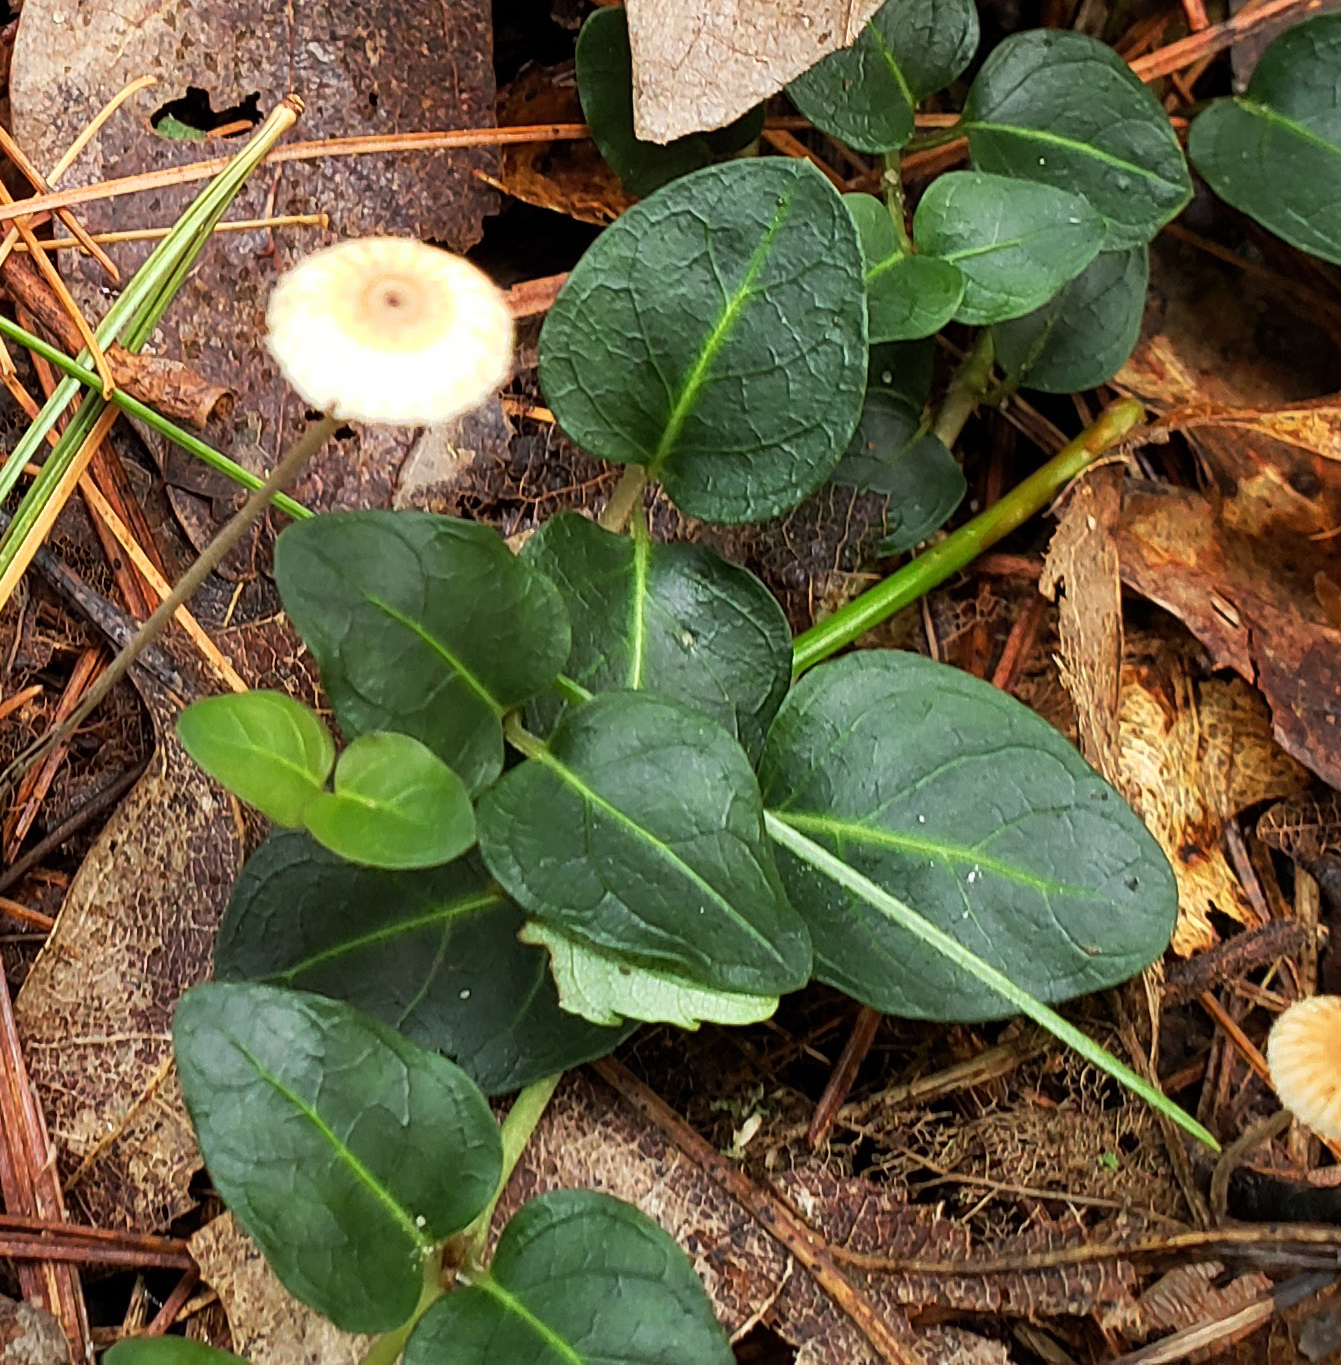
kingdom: Plantae
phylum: Tracheophyta
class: Magnoliopsida
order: Gentianales
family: Rubiaceae
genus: Mitchella
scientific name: Mitchella repens
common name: Partridge-berry
